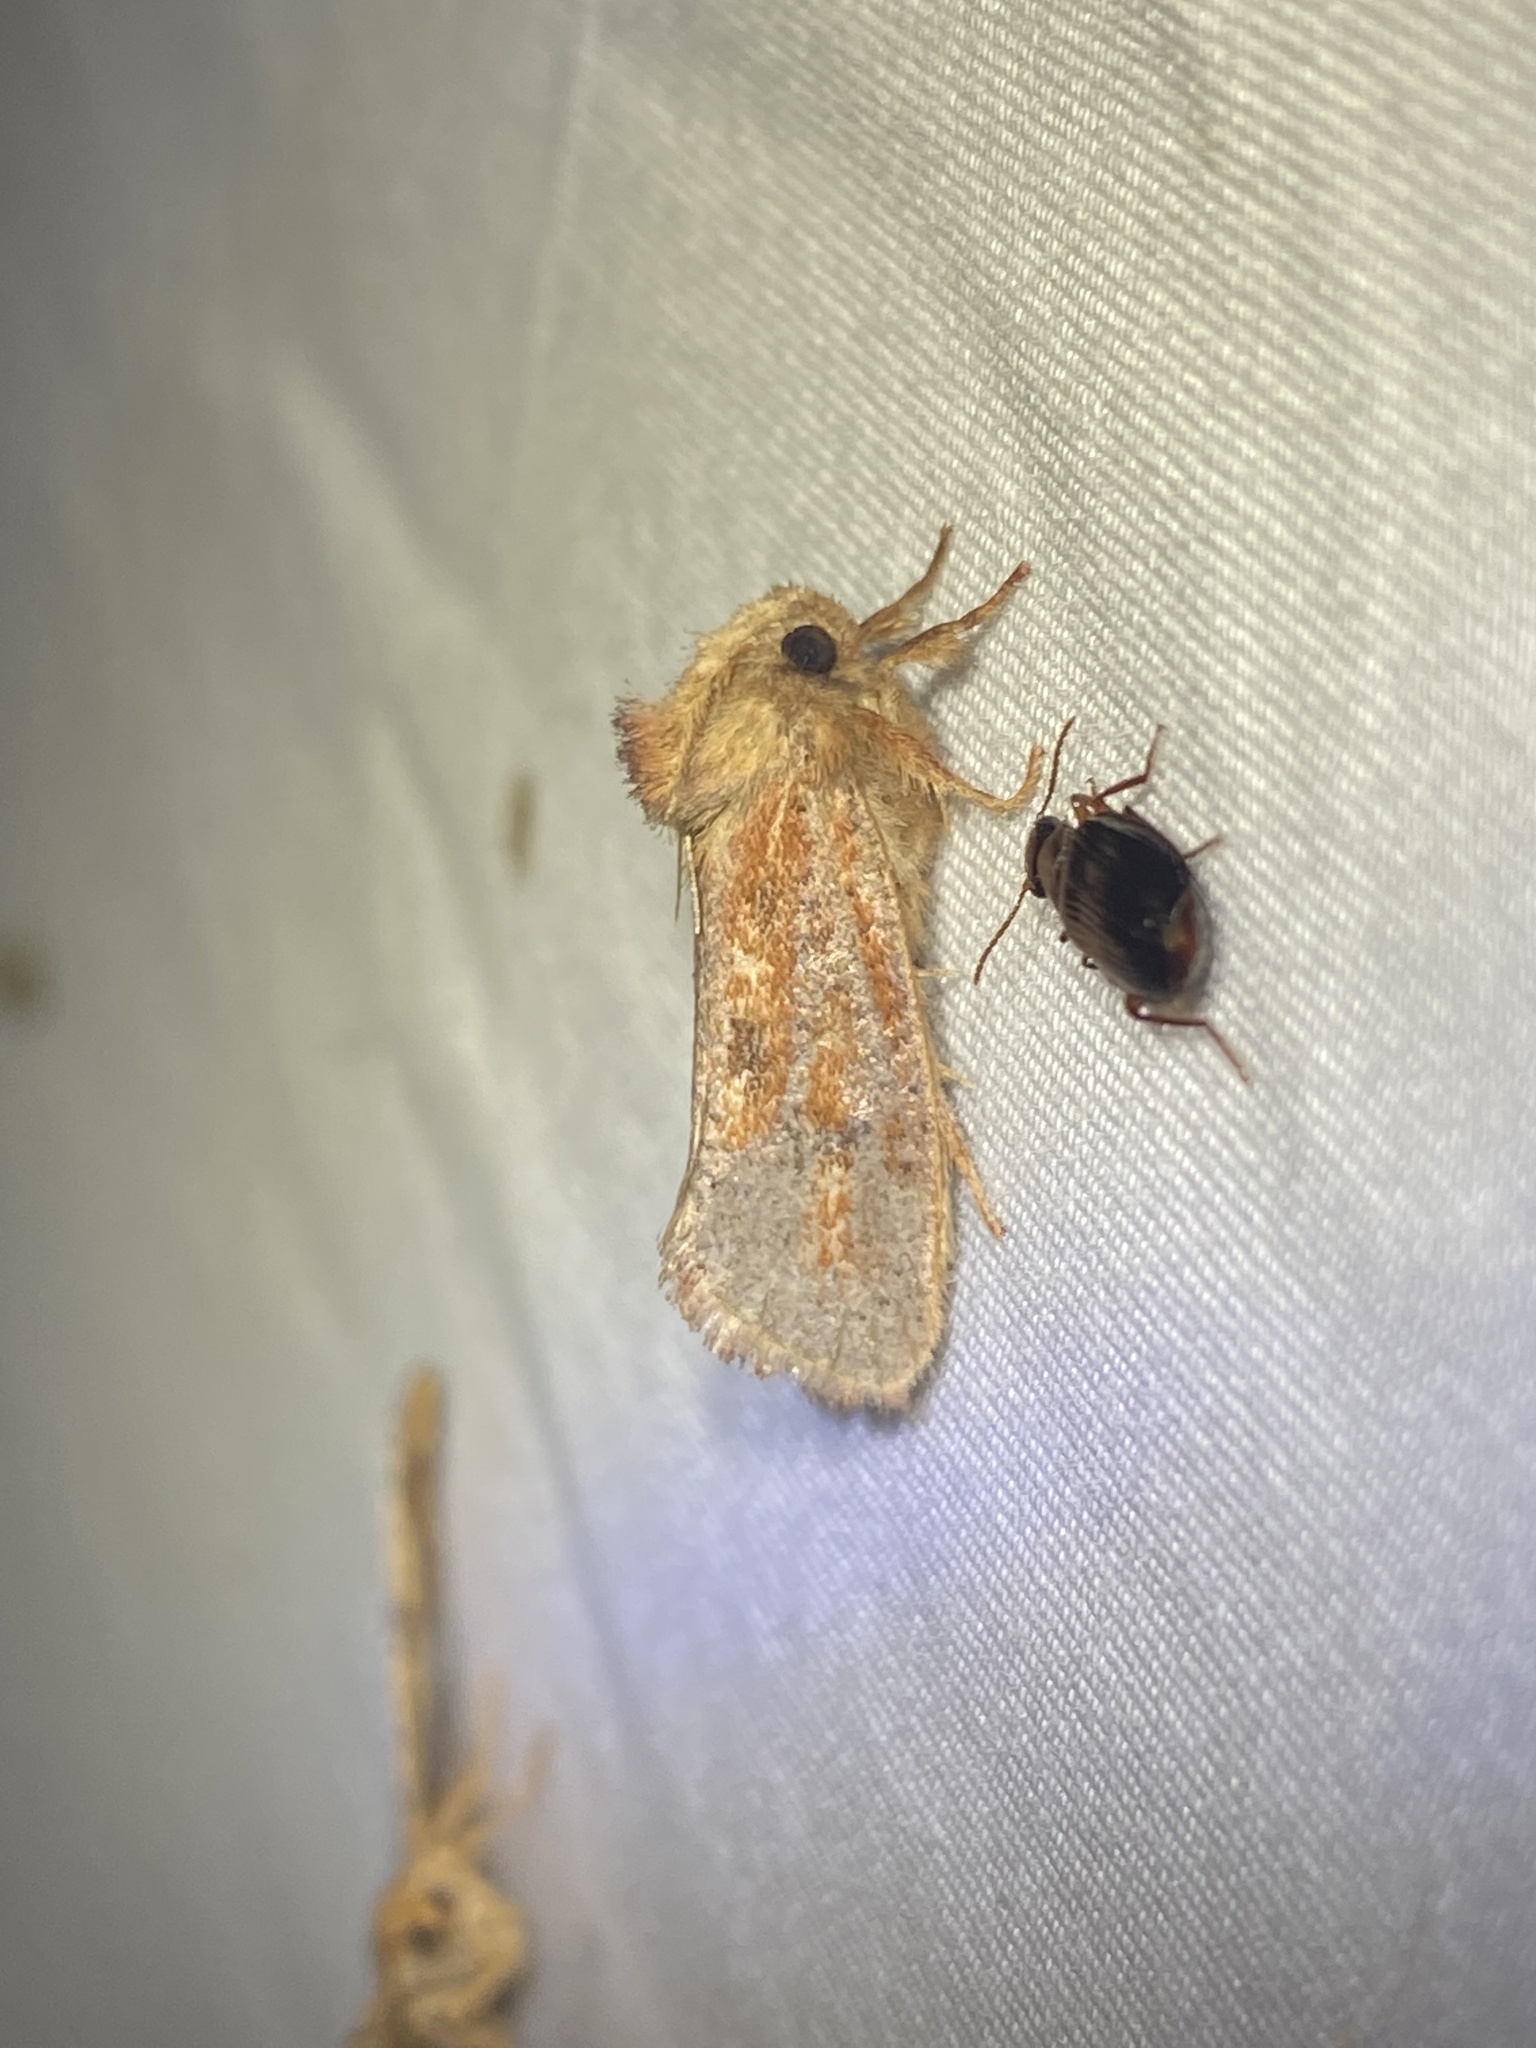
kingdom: Animalia
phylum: Arthropoda
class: Insecta
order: Lepidoptera
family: Tineidae
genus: Acrolophus
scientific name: Acrolophus plumifrontella
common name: Eastern grass tubeworm moth
